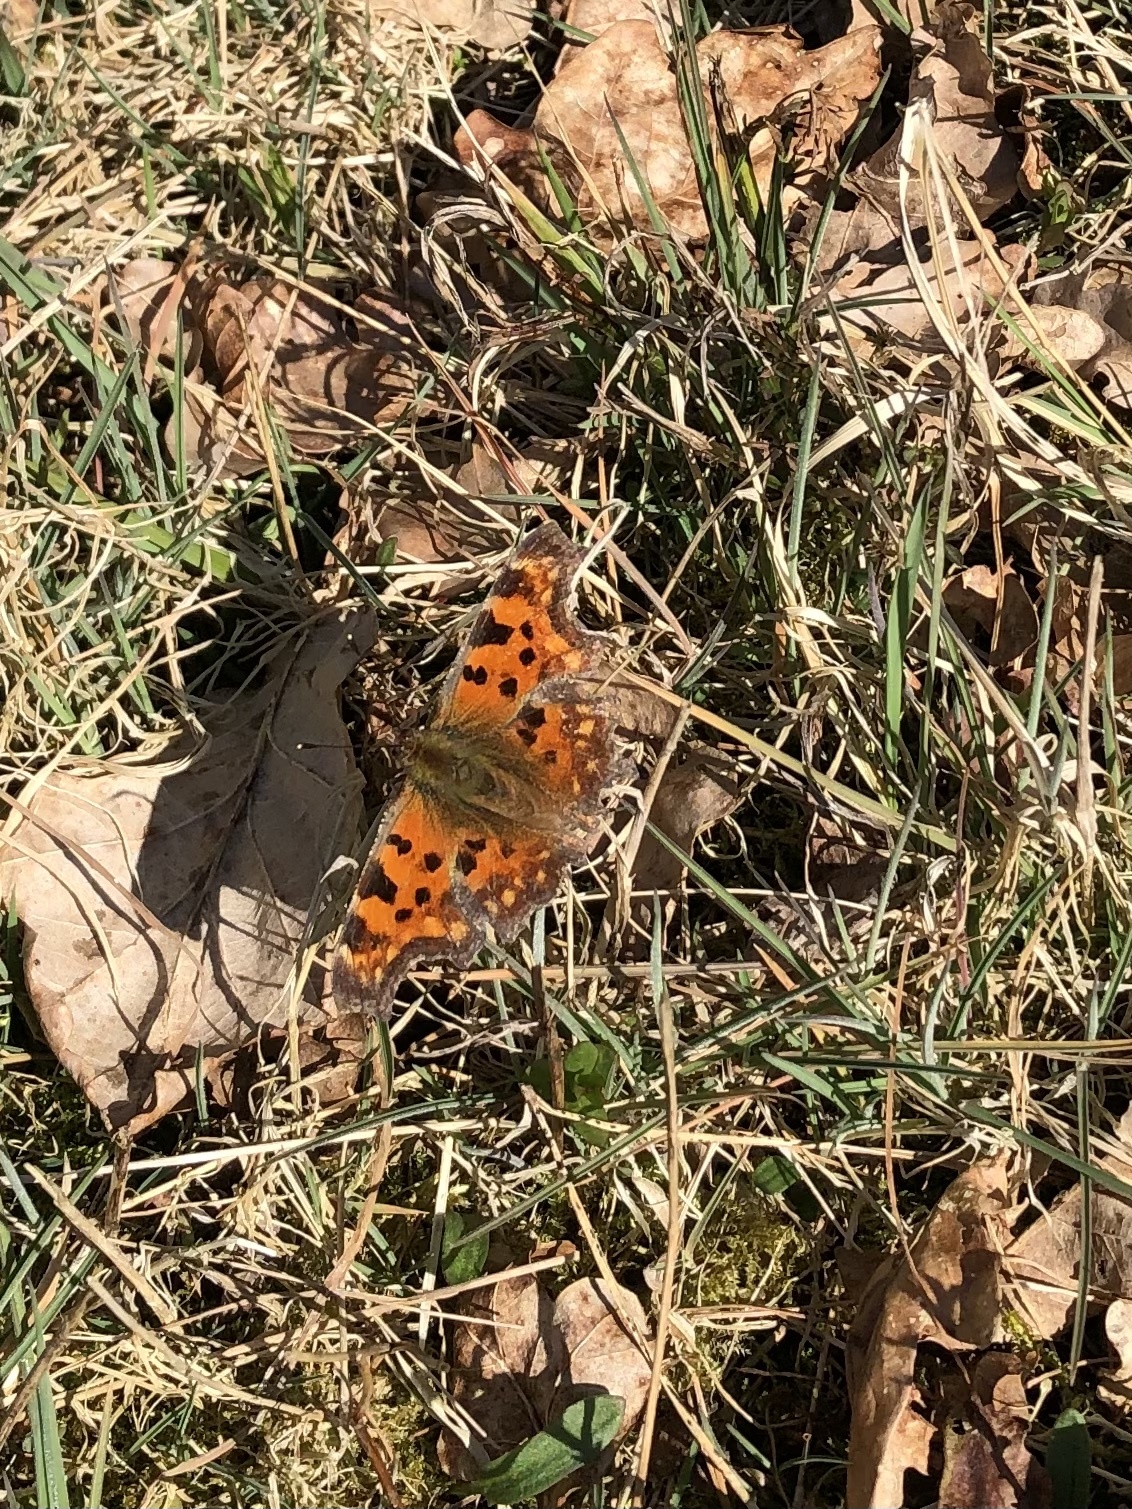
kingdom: Animalia
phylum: Arthropoda
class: Insecta
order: Lepidoptera
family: Nymphalidae
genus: Polygonia
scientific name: Polygonia c-album
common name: Comma
